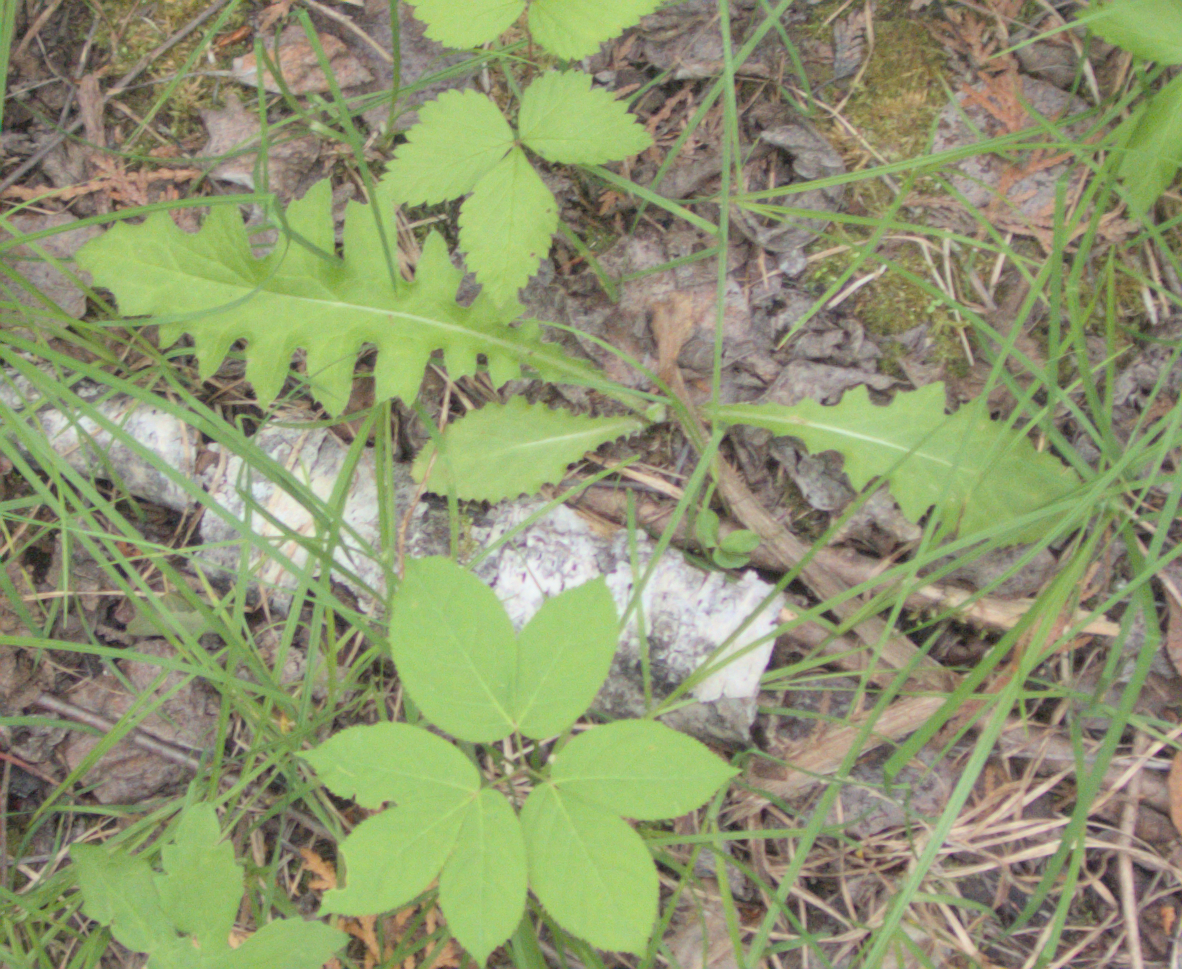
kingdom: Plantae
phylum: Tracheophyta
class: Magnoliopsida
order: Asterales
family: Asteraceae
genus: Cirsium
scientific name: Cirsium muticum
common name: Dunce-nettle
